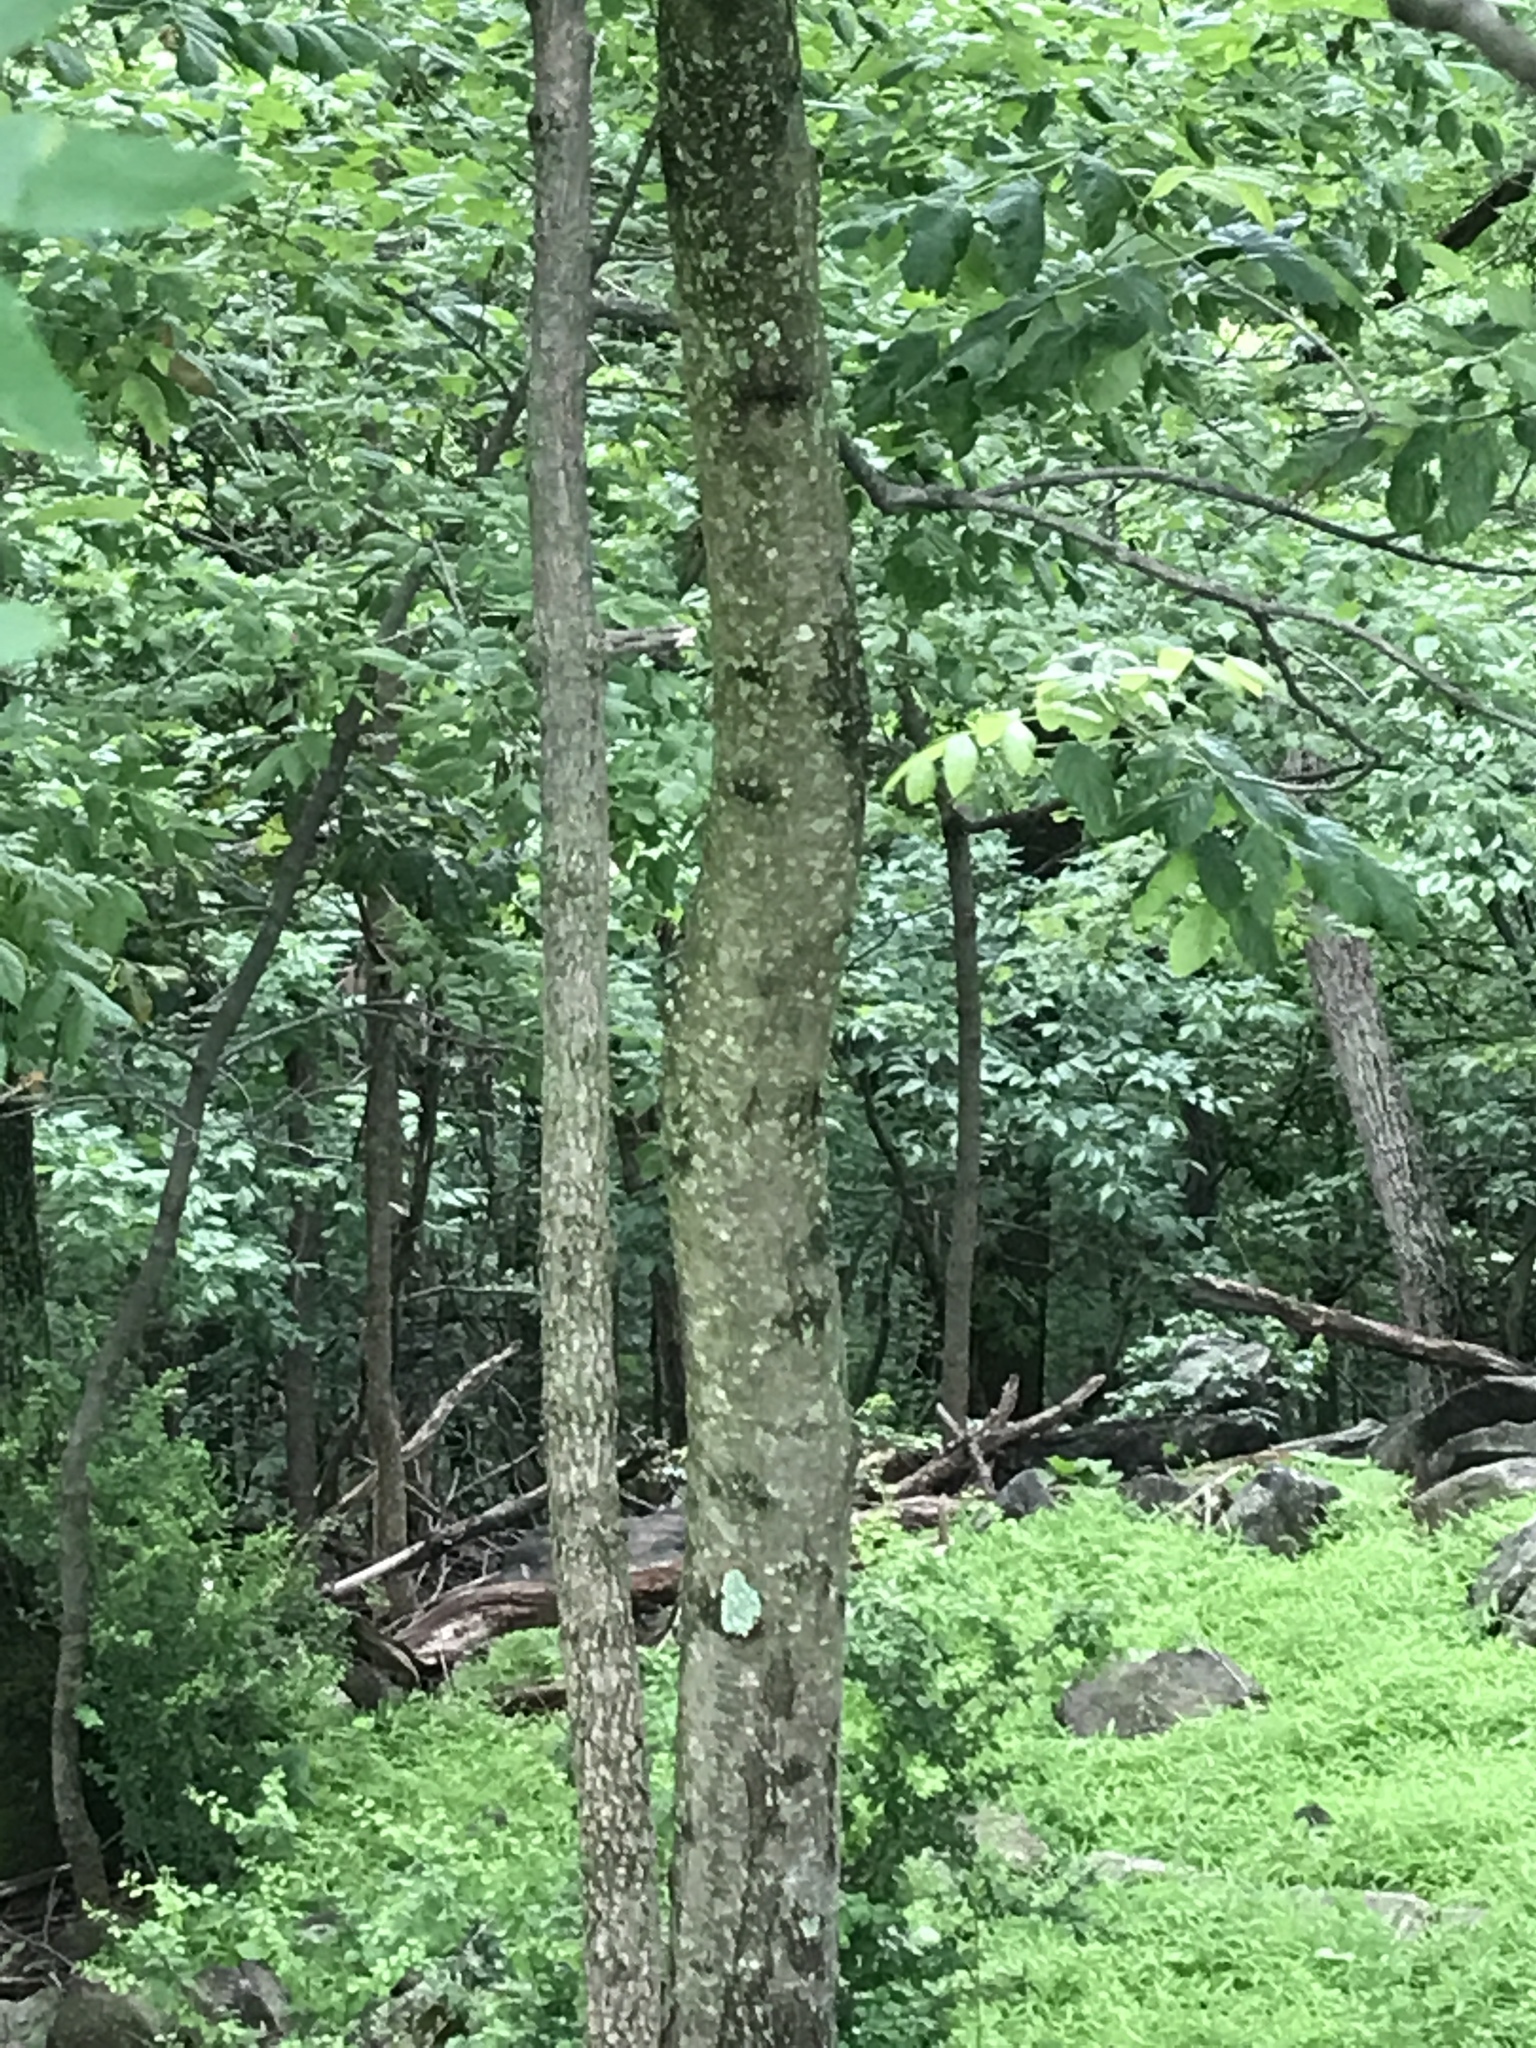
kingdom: Plantae
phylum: Tracheophyta
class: Magnoliopsida
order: Fabales
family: Fabaceae
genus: Gleditsia
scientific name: Gleditsia triacanthos
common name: Common honeylocust
